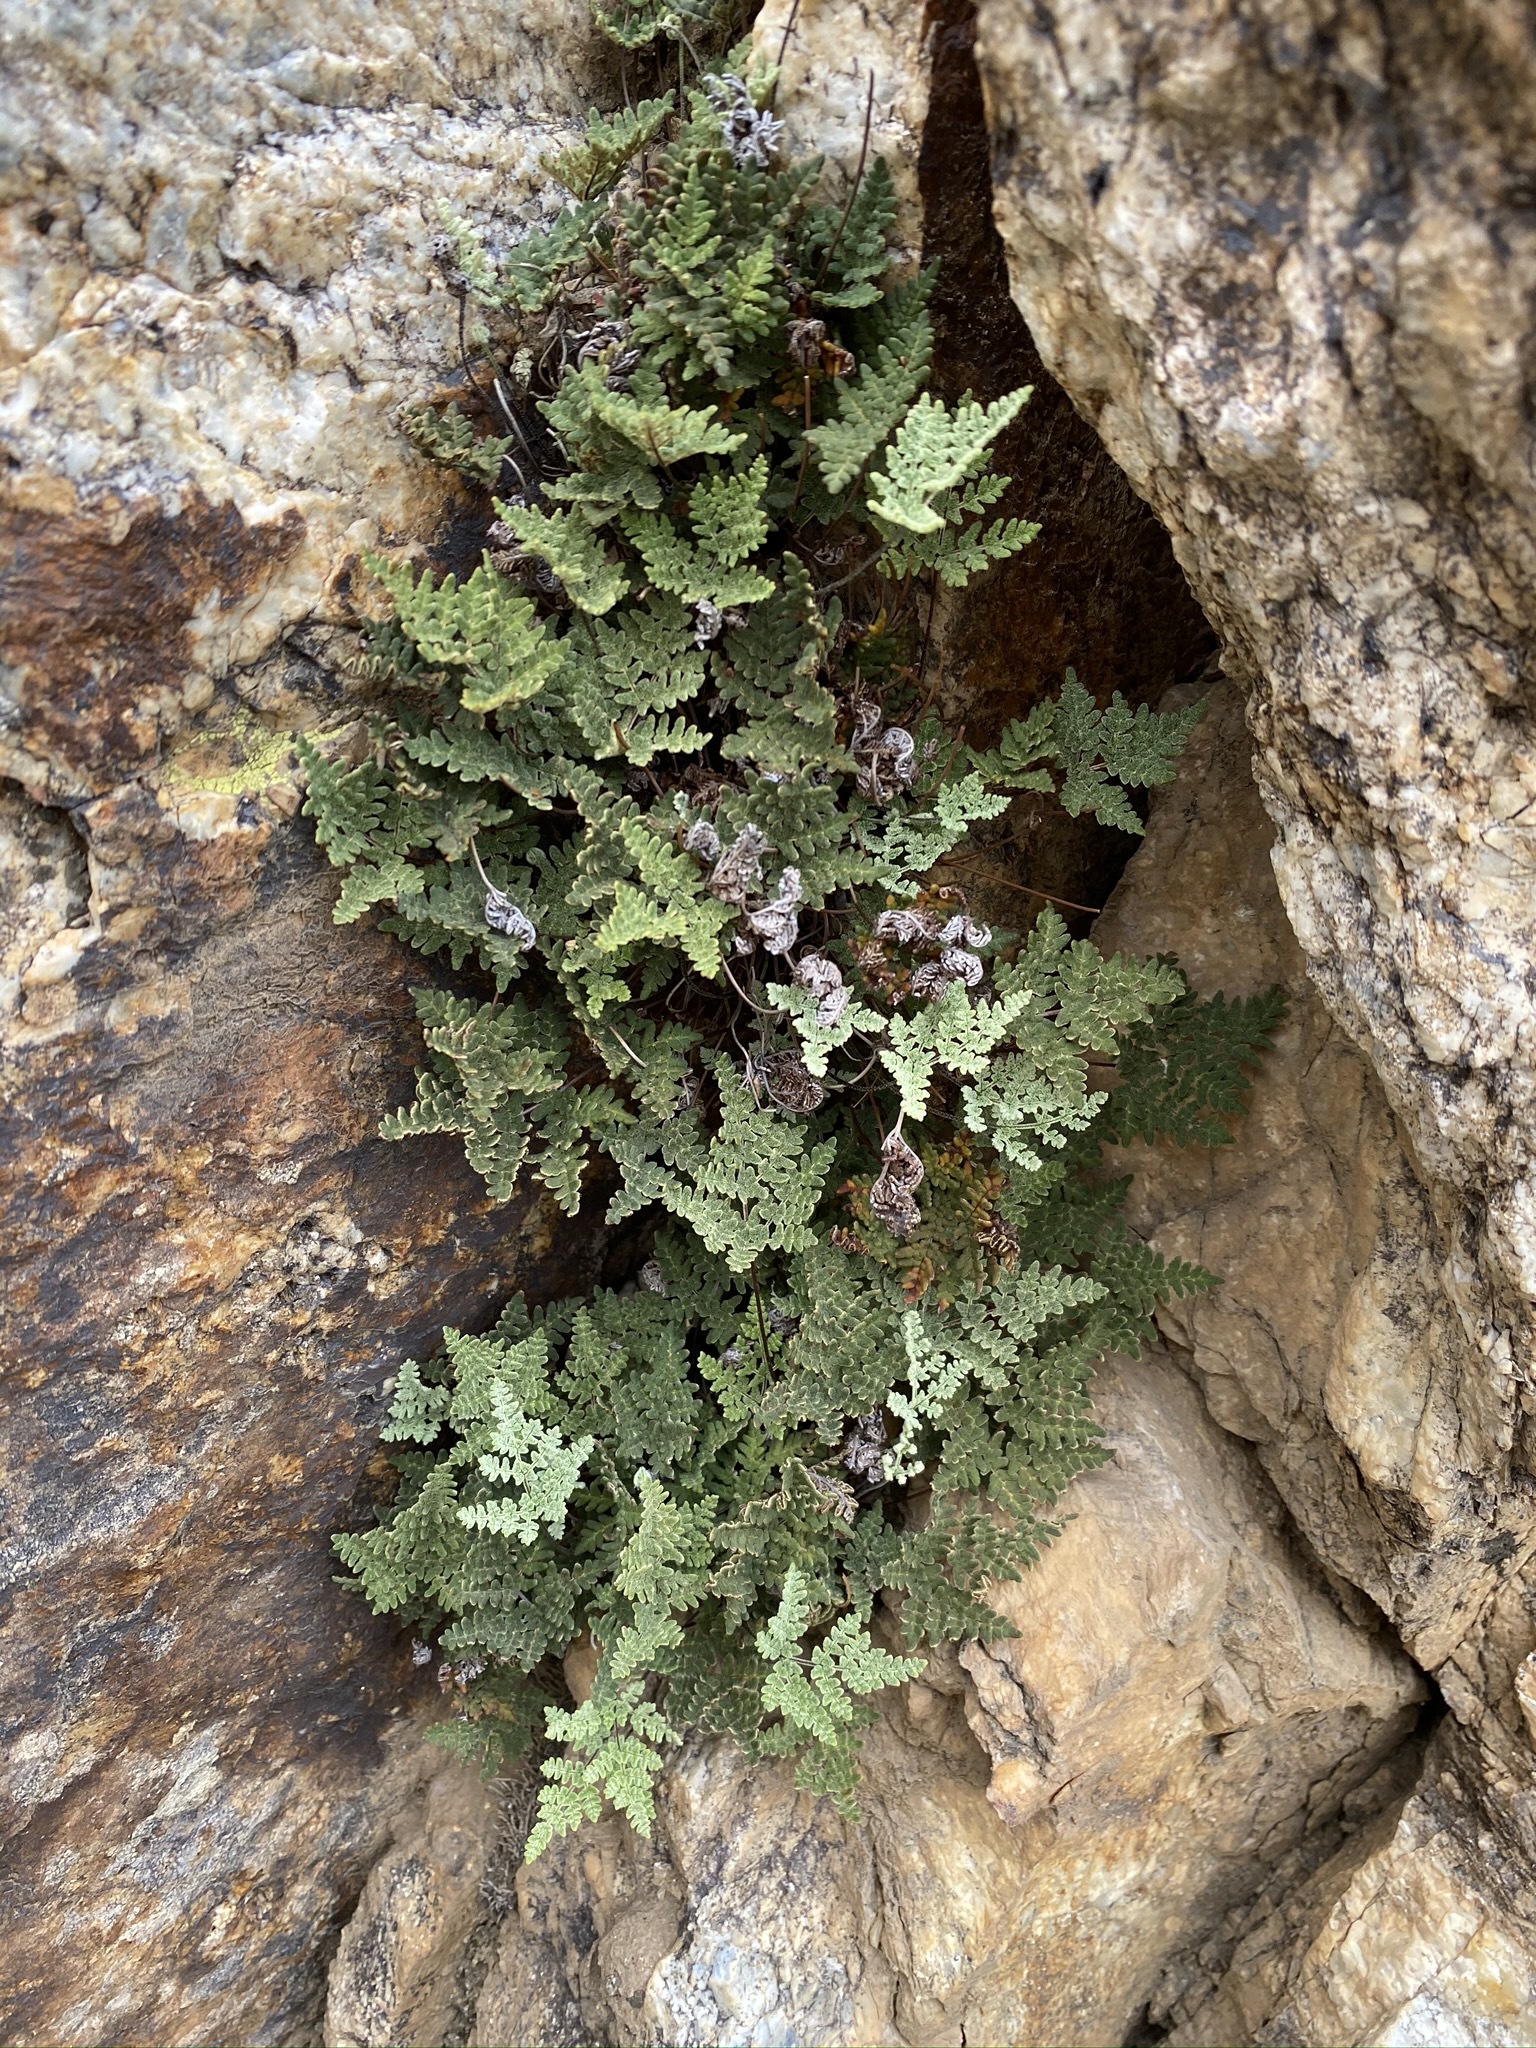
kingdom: Plantae
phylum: Tracheophyta
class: Polypodiopsida
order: Polypodiales
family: Pteridaceae
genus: Notholaena
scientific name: Notholaena californica
